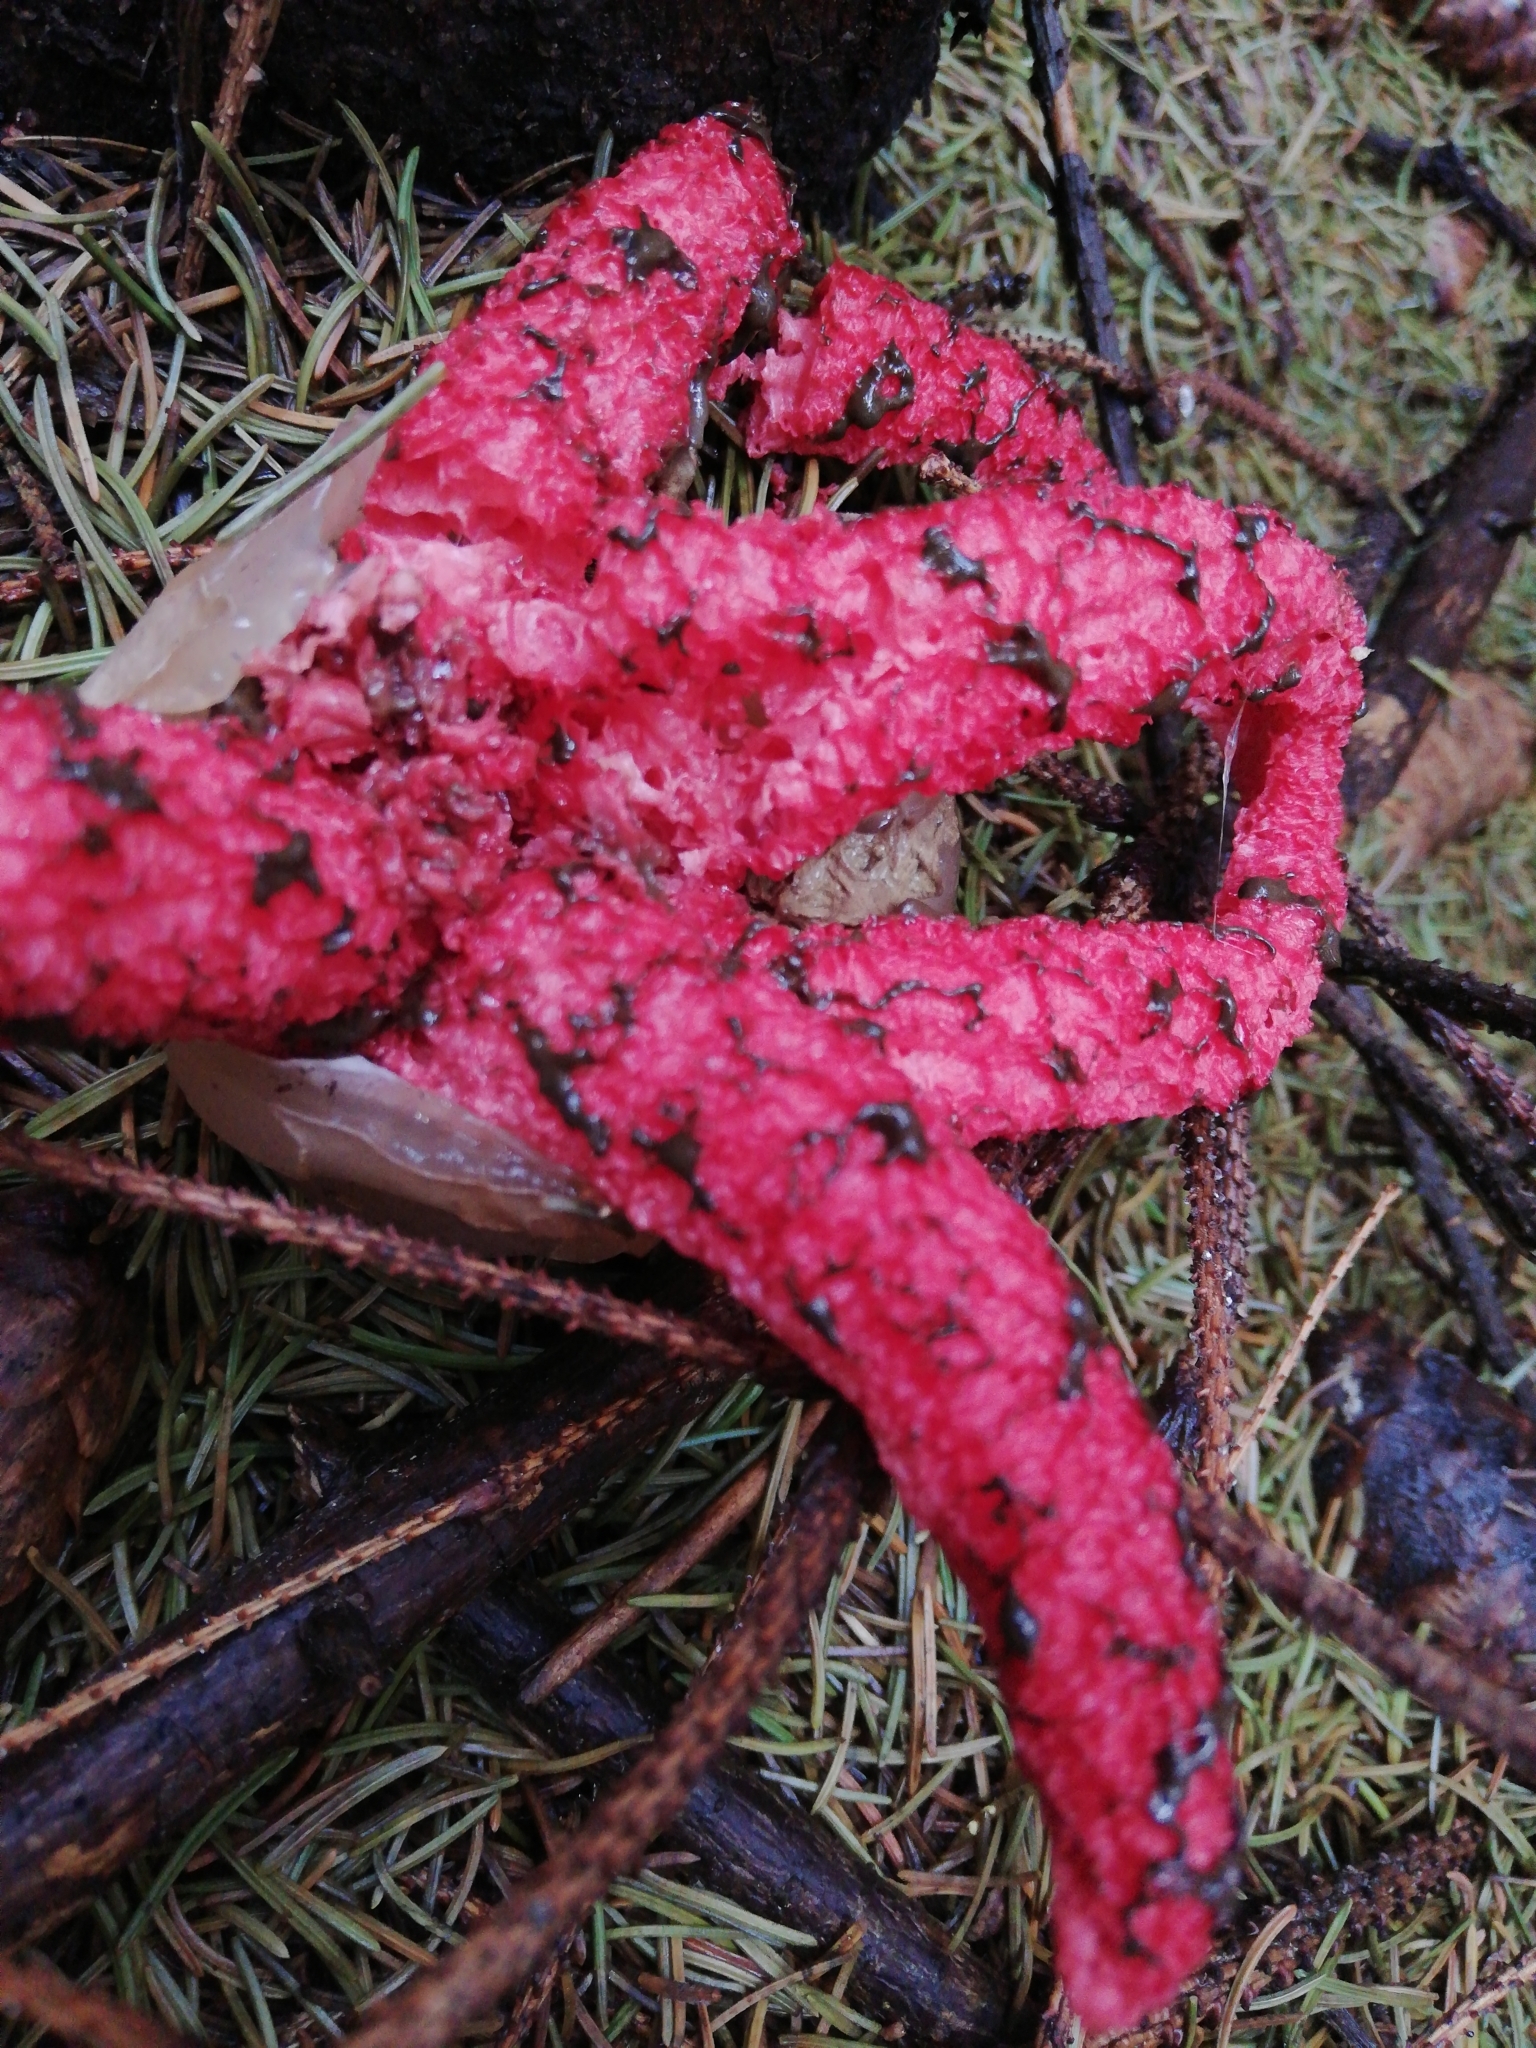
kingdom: Fungi
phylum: Basidiomycota
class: Agaricomycetes
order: Phallales
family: Phallaceae
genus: Clathrus
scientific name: Clathrus archeri
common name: Devil's fingers
